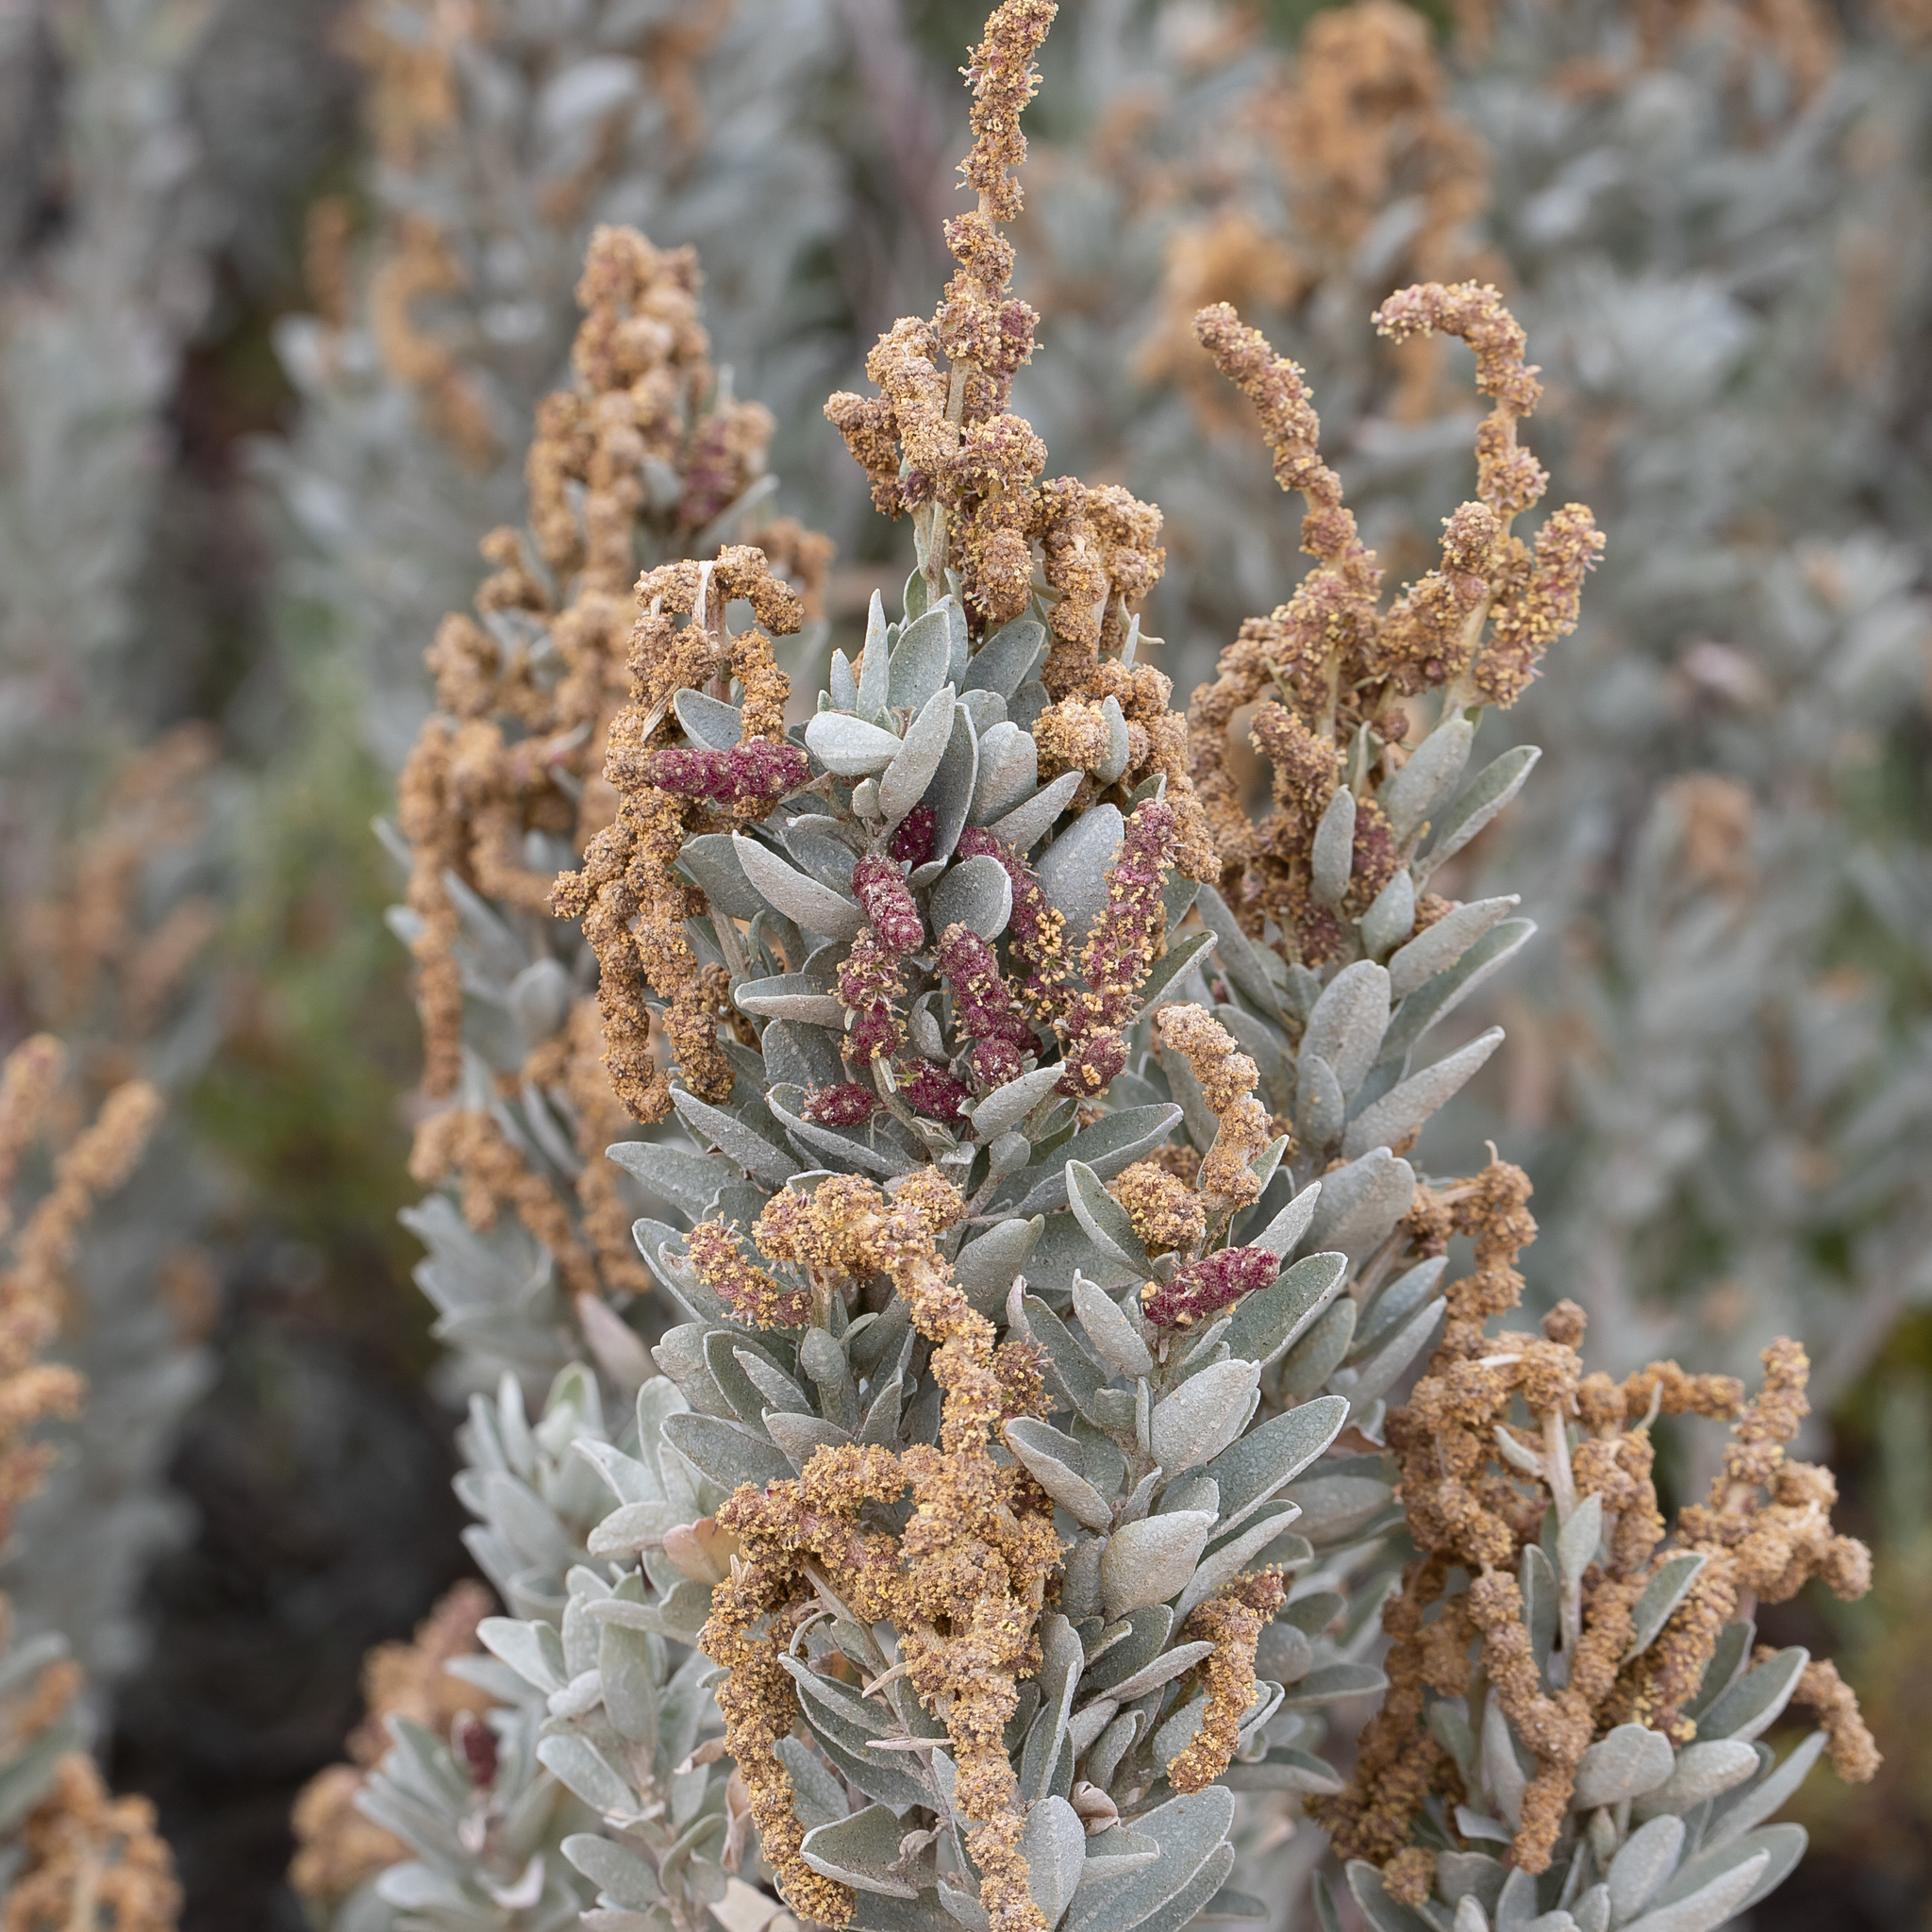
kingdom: Plantae
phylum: Tracheophyta
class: Magnoliopsida
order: Caryophyllales
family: Amaranthaceae
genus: Atriplex
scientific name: Atriplex cinerea
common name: Grey saltbush
